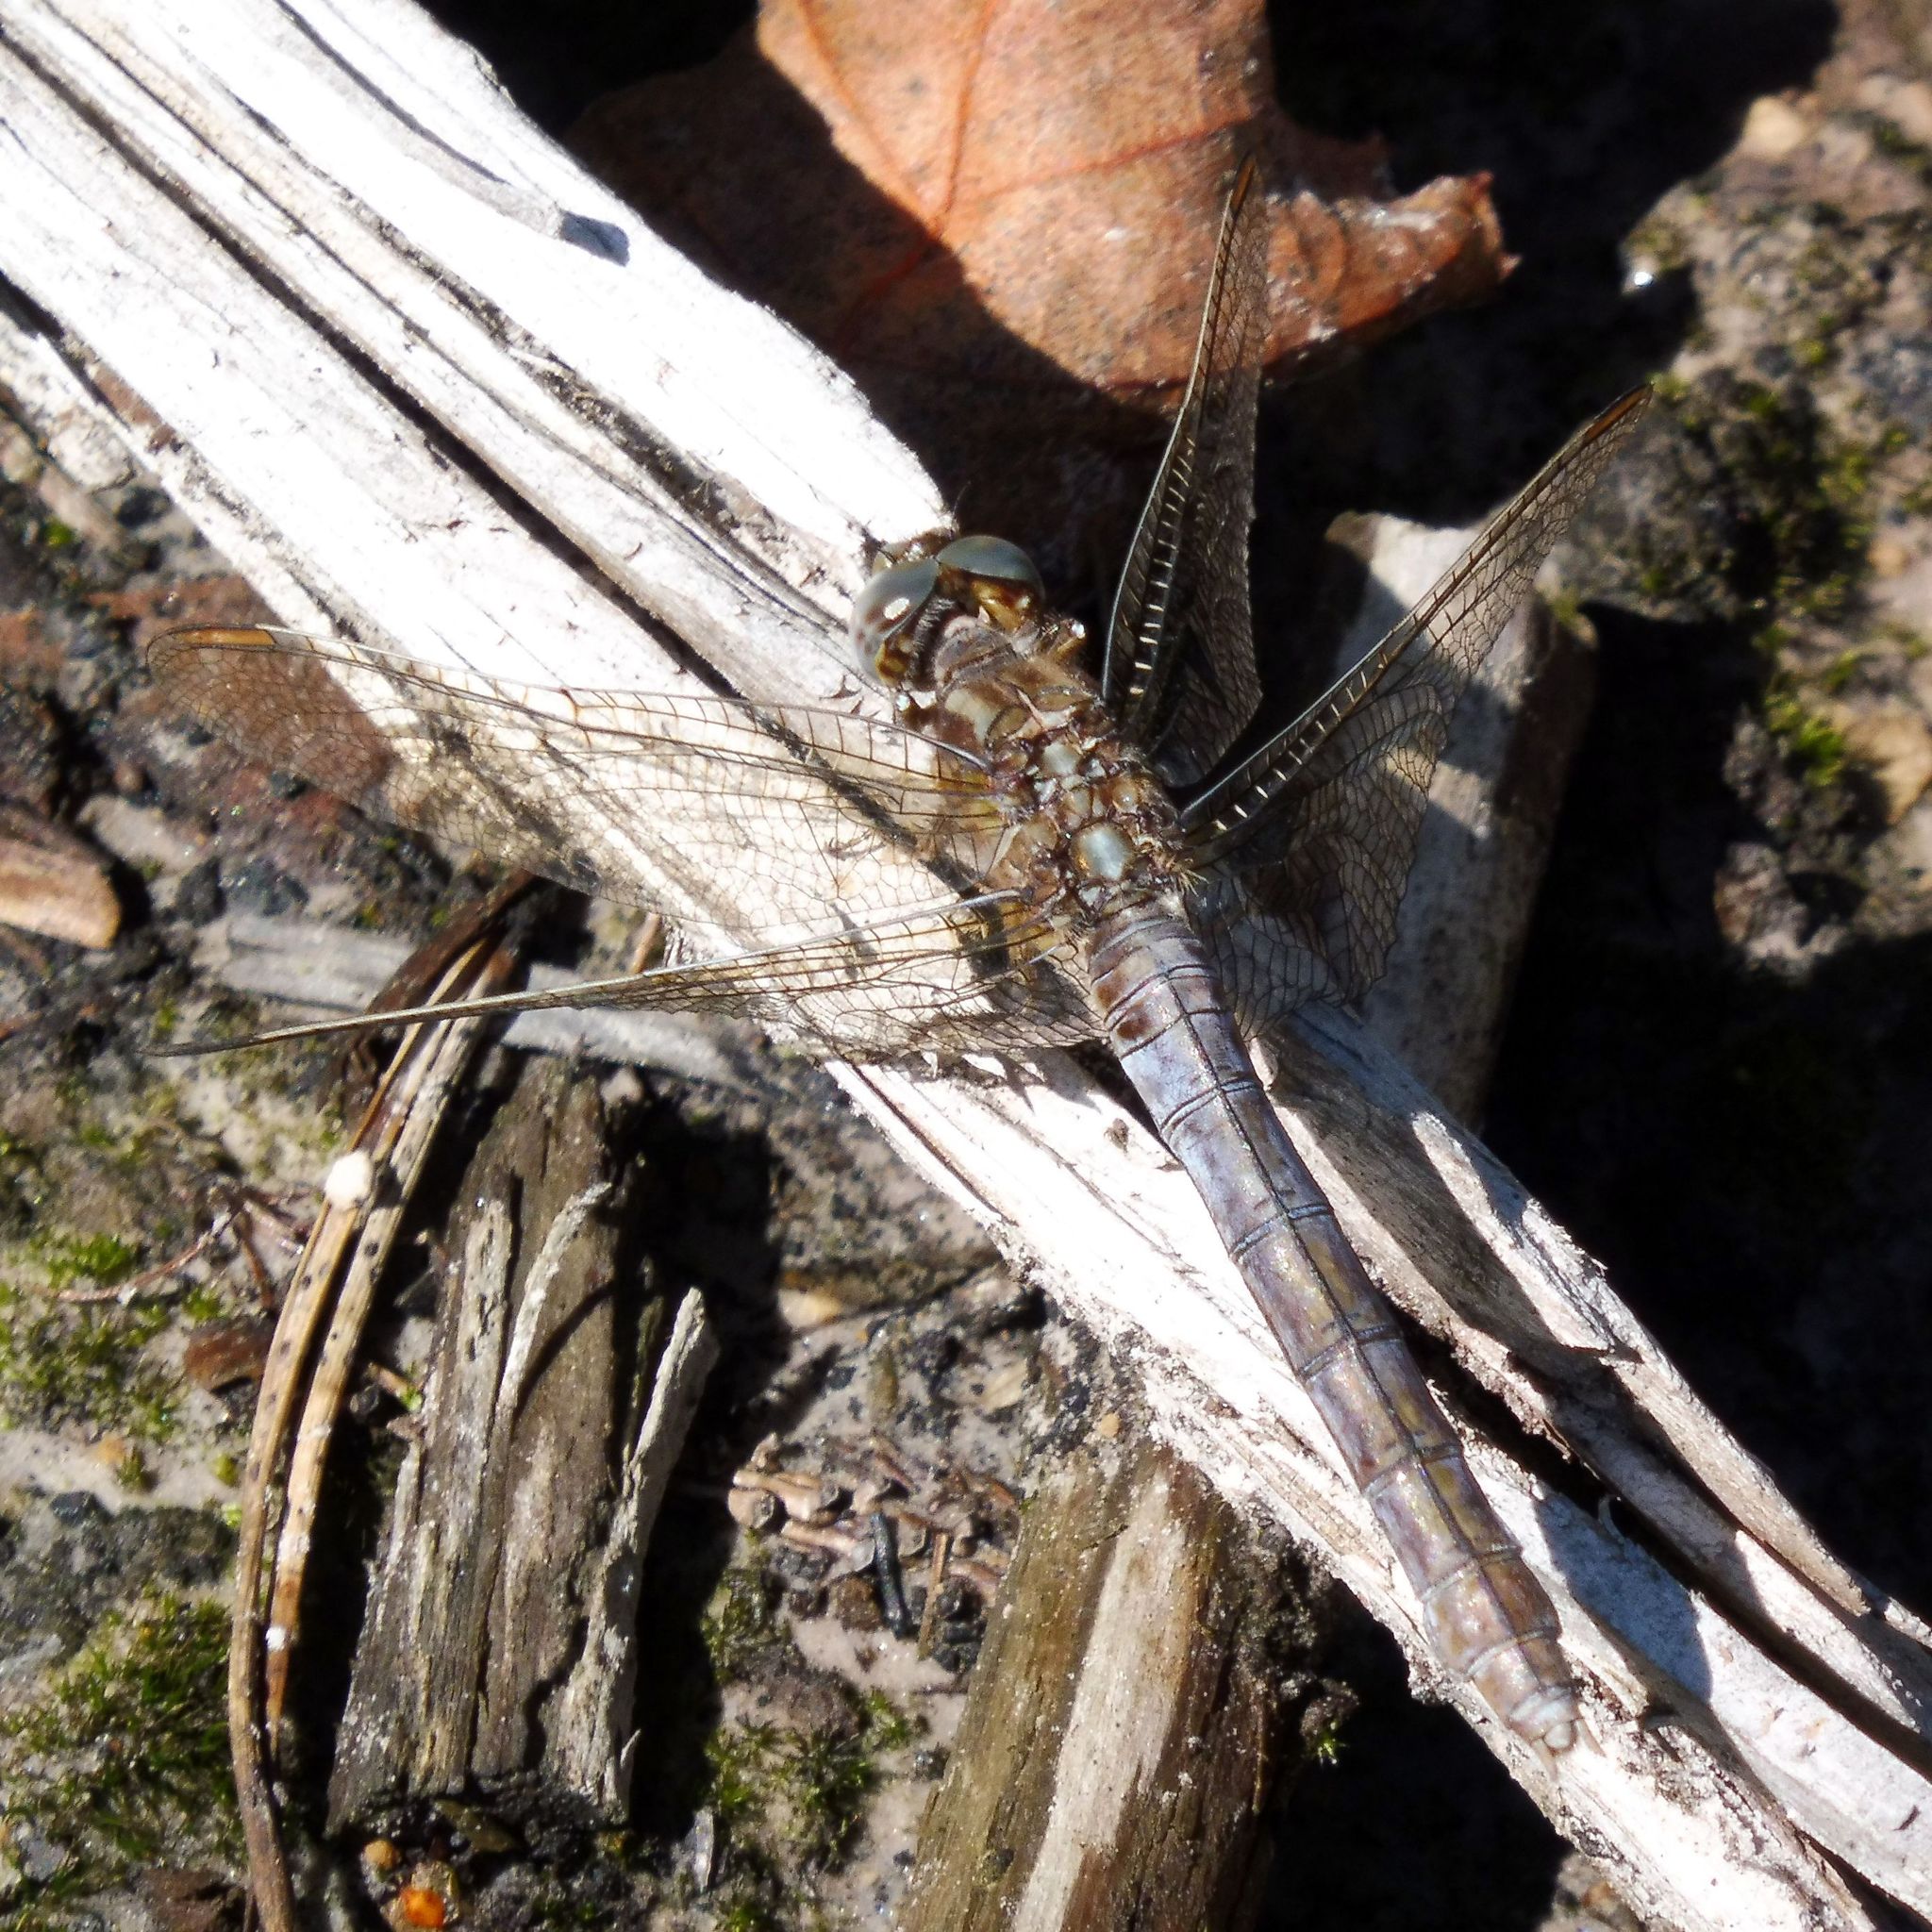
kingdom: Animalia
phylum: Arthropoda
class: Insecta
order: Odonata
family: Libellulidae
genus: Orthetrum
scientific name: Orthetrum coerulescens
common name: Keeled skimmer
